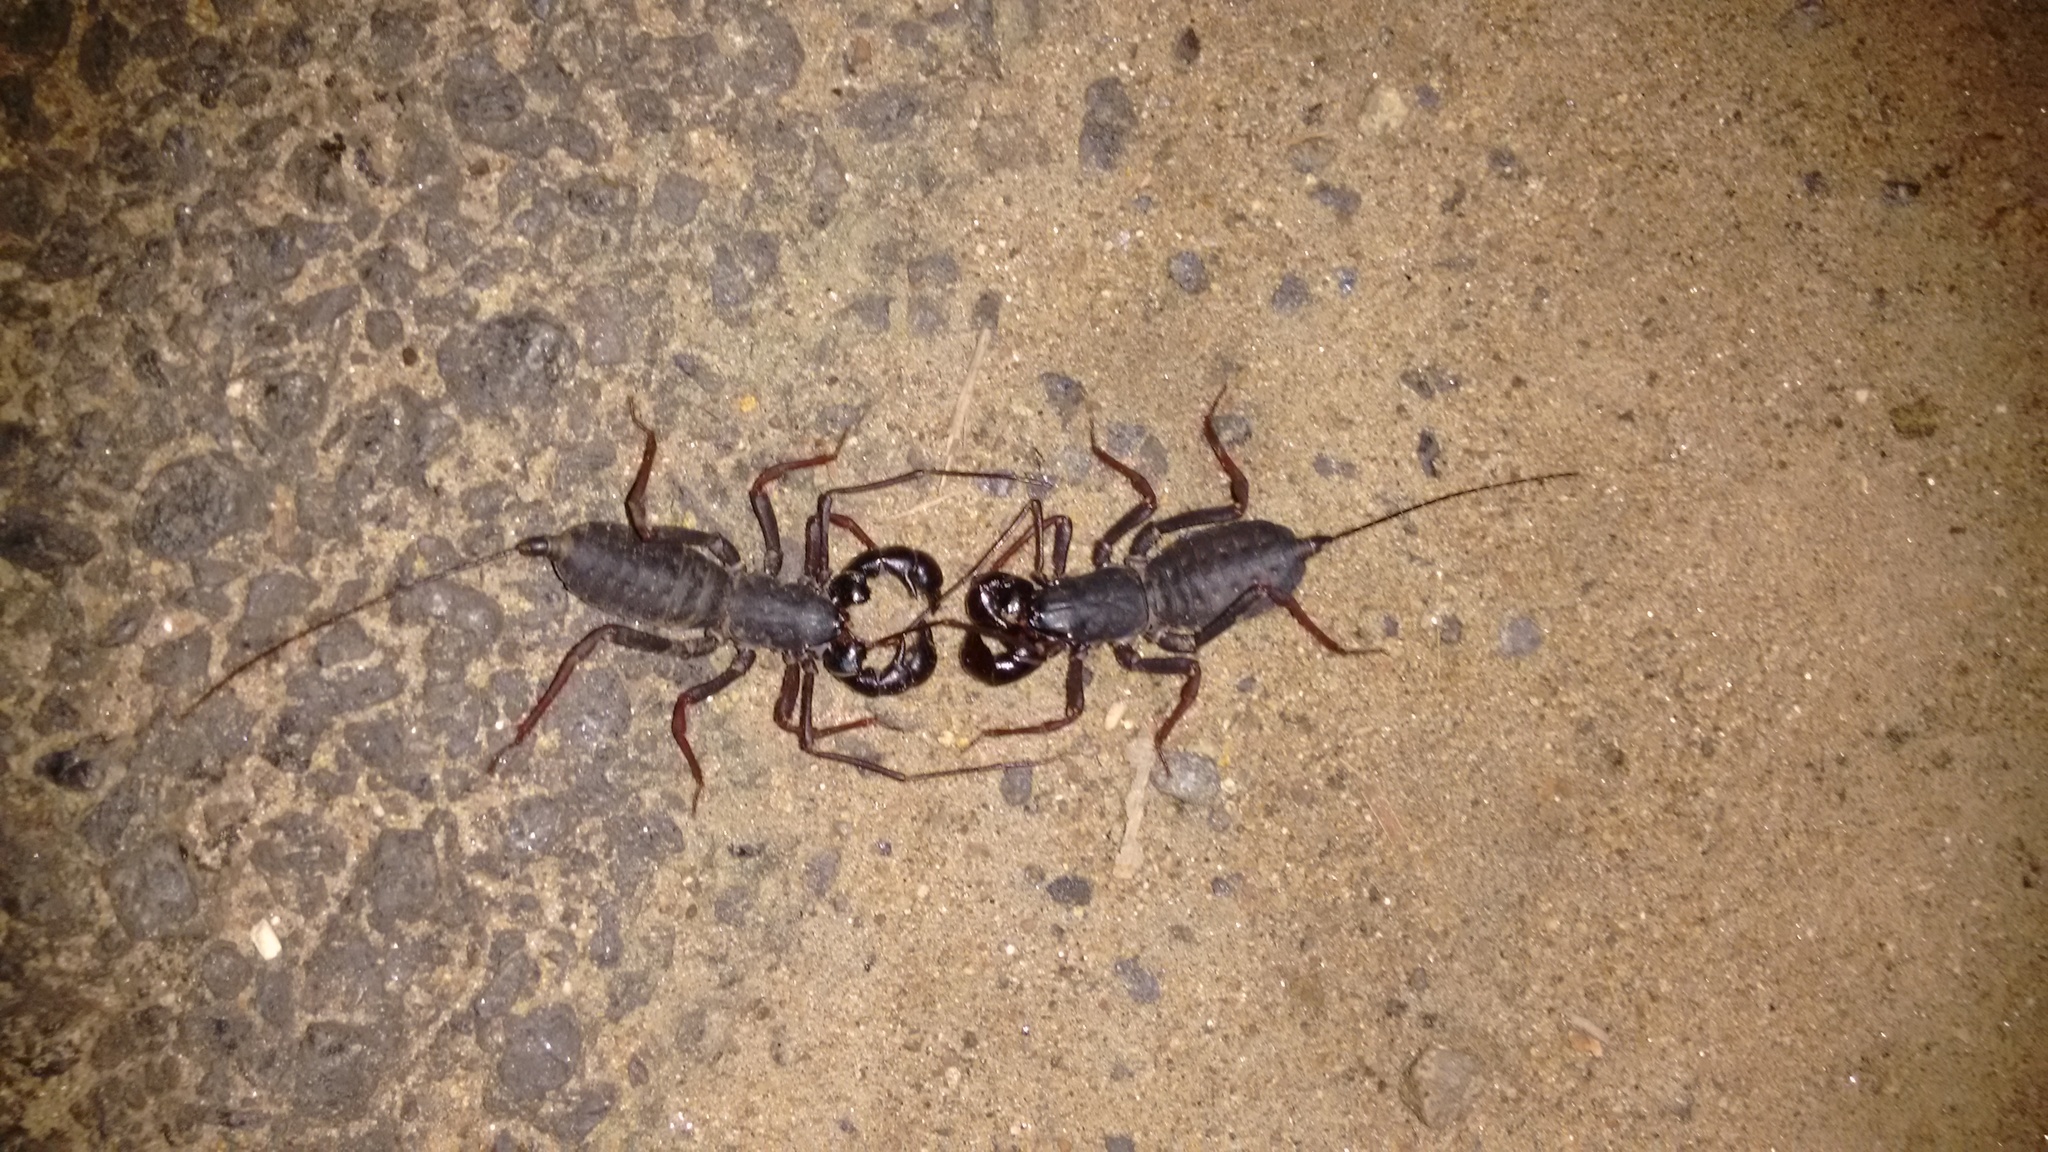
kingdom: Animalia
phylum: Arthropoda
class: Arachnida
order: Uropygi
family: Thelyphonidae
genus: Thelyphonus
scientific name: Thelyphonus sepiaris
